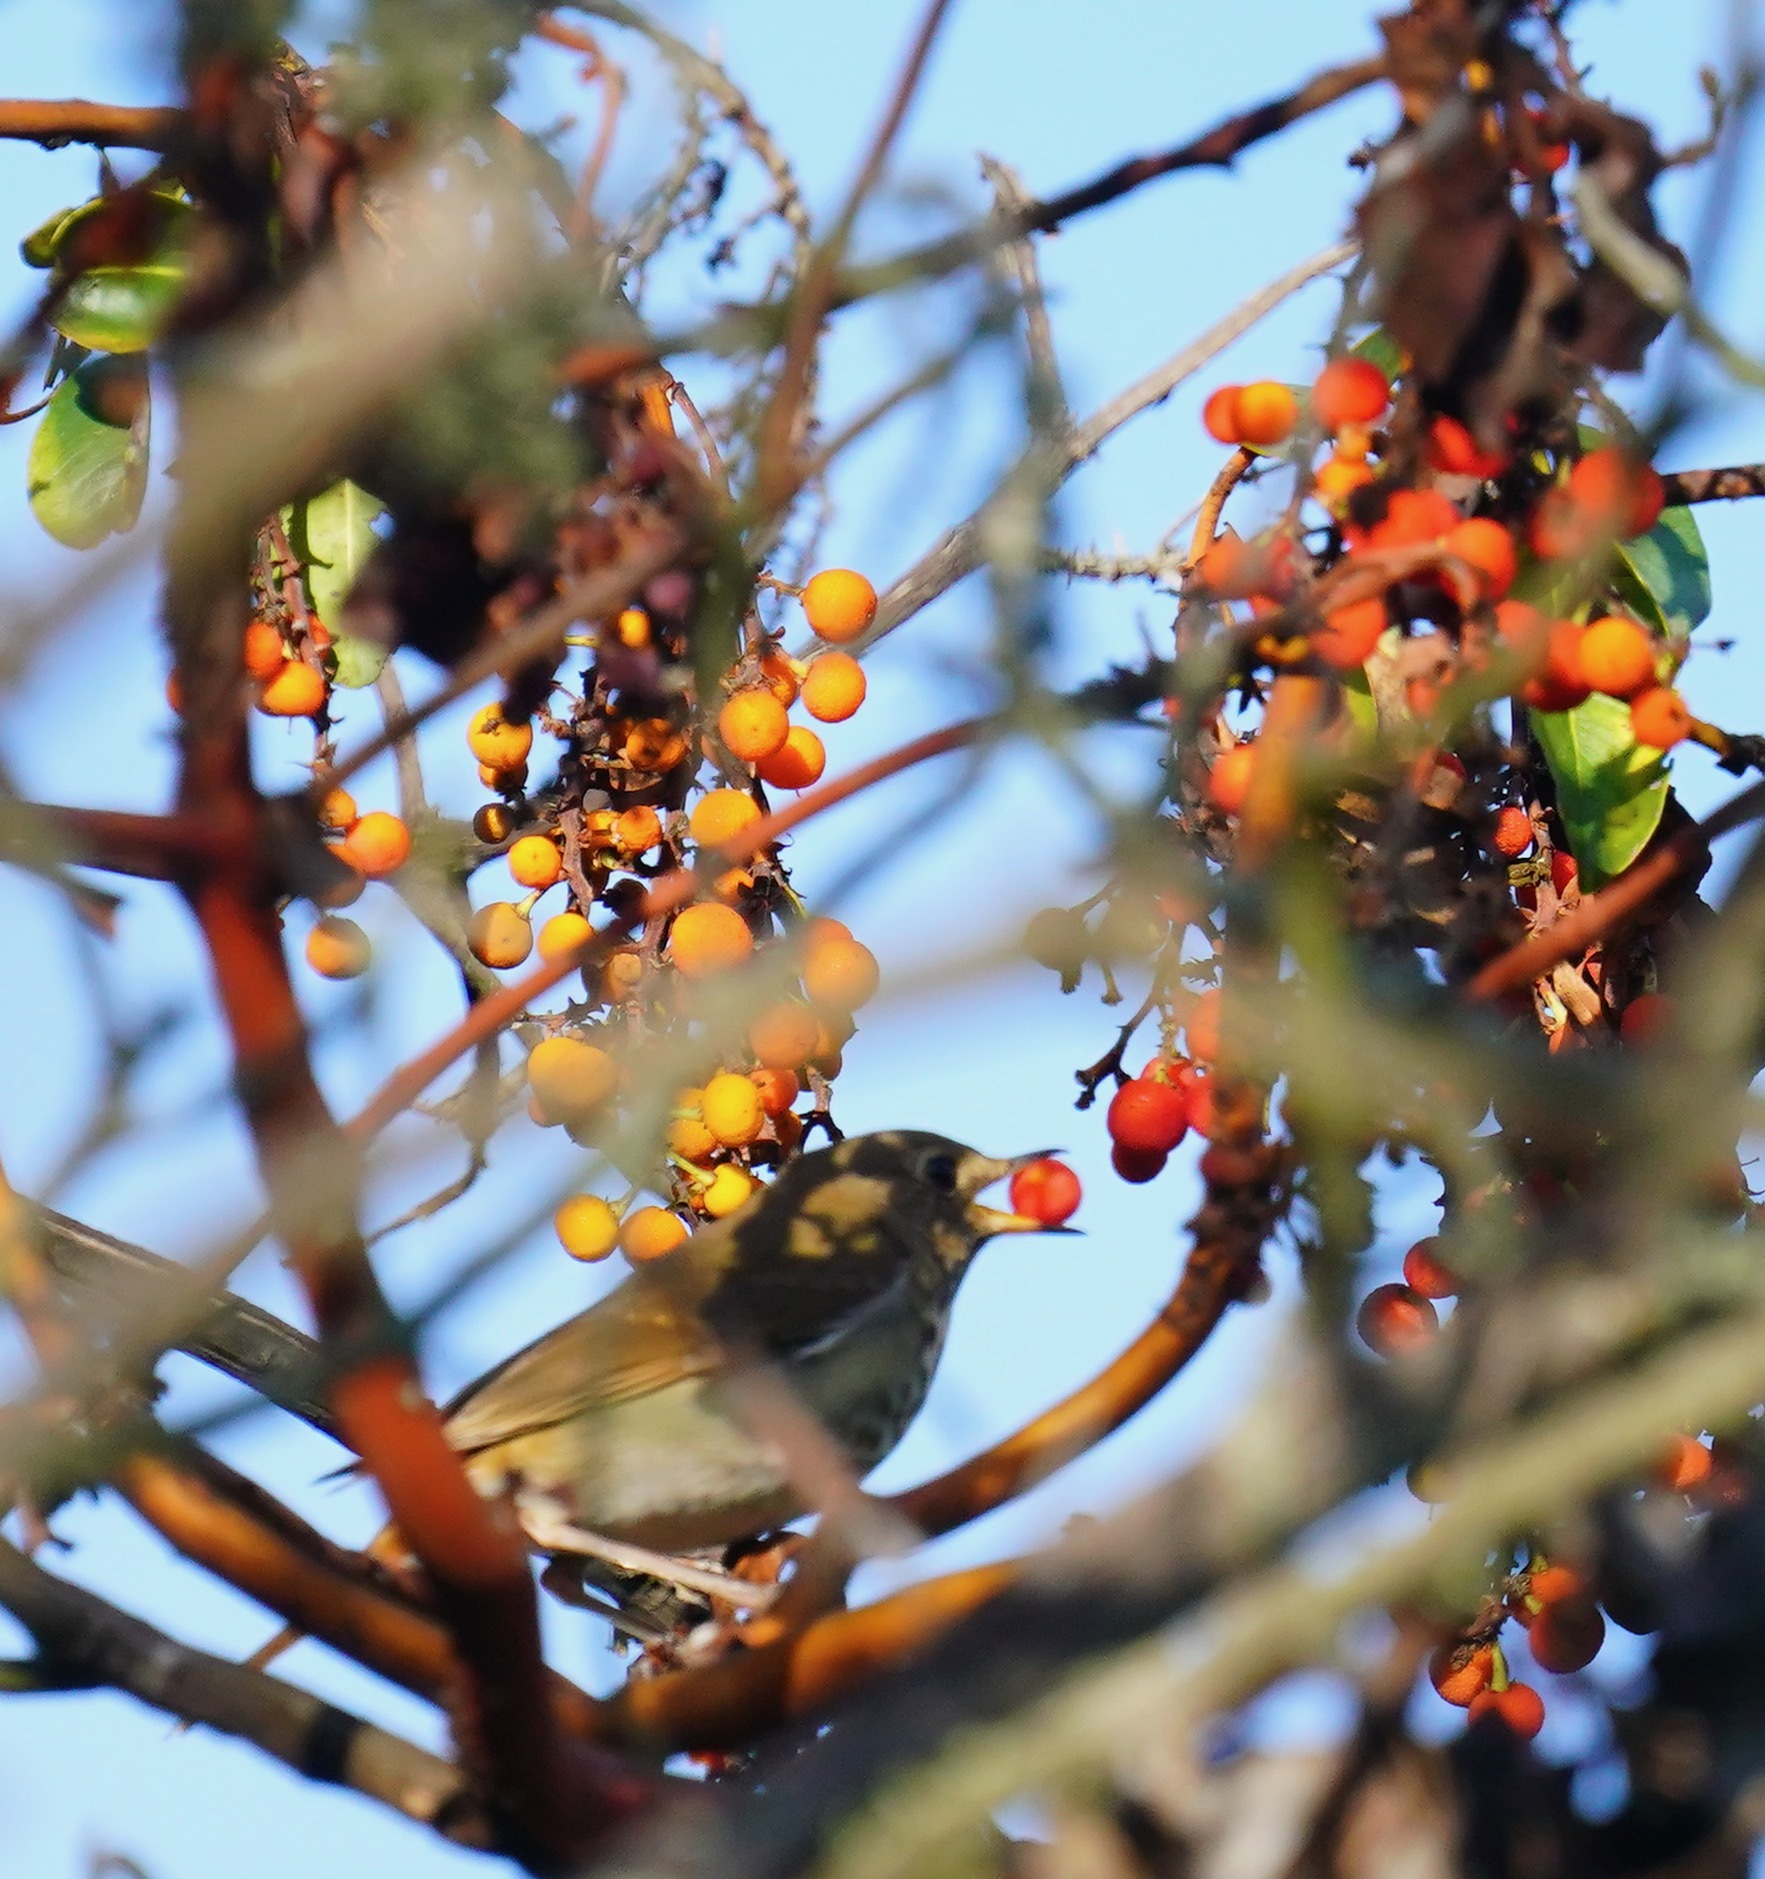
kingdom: Animalia
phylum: Chordata
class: Aves
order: Passeriformes
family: Turdidae
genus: Catharus
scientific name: Catharus guttatus
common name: Hermit thrush
